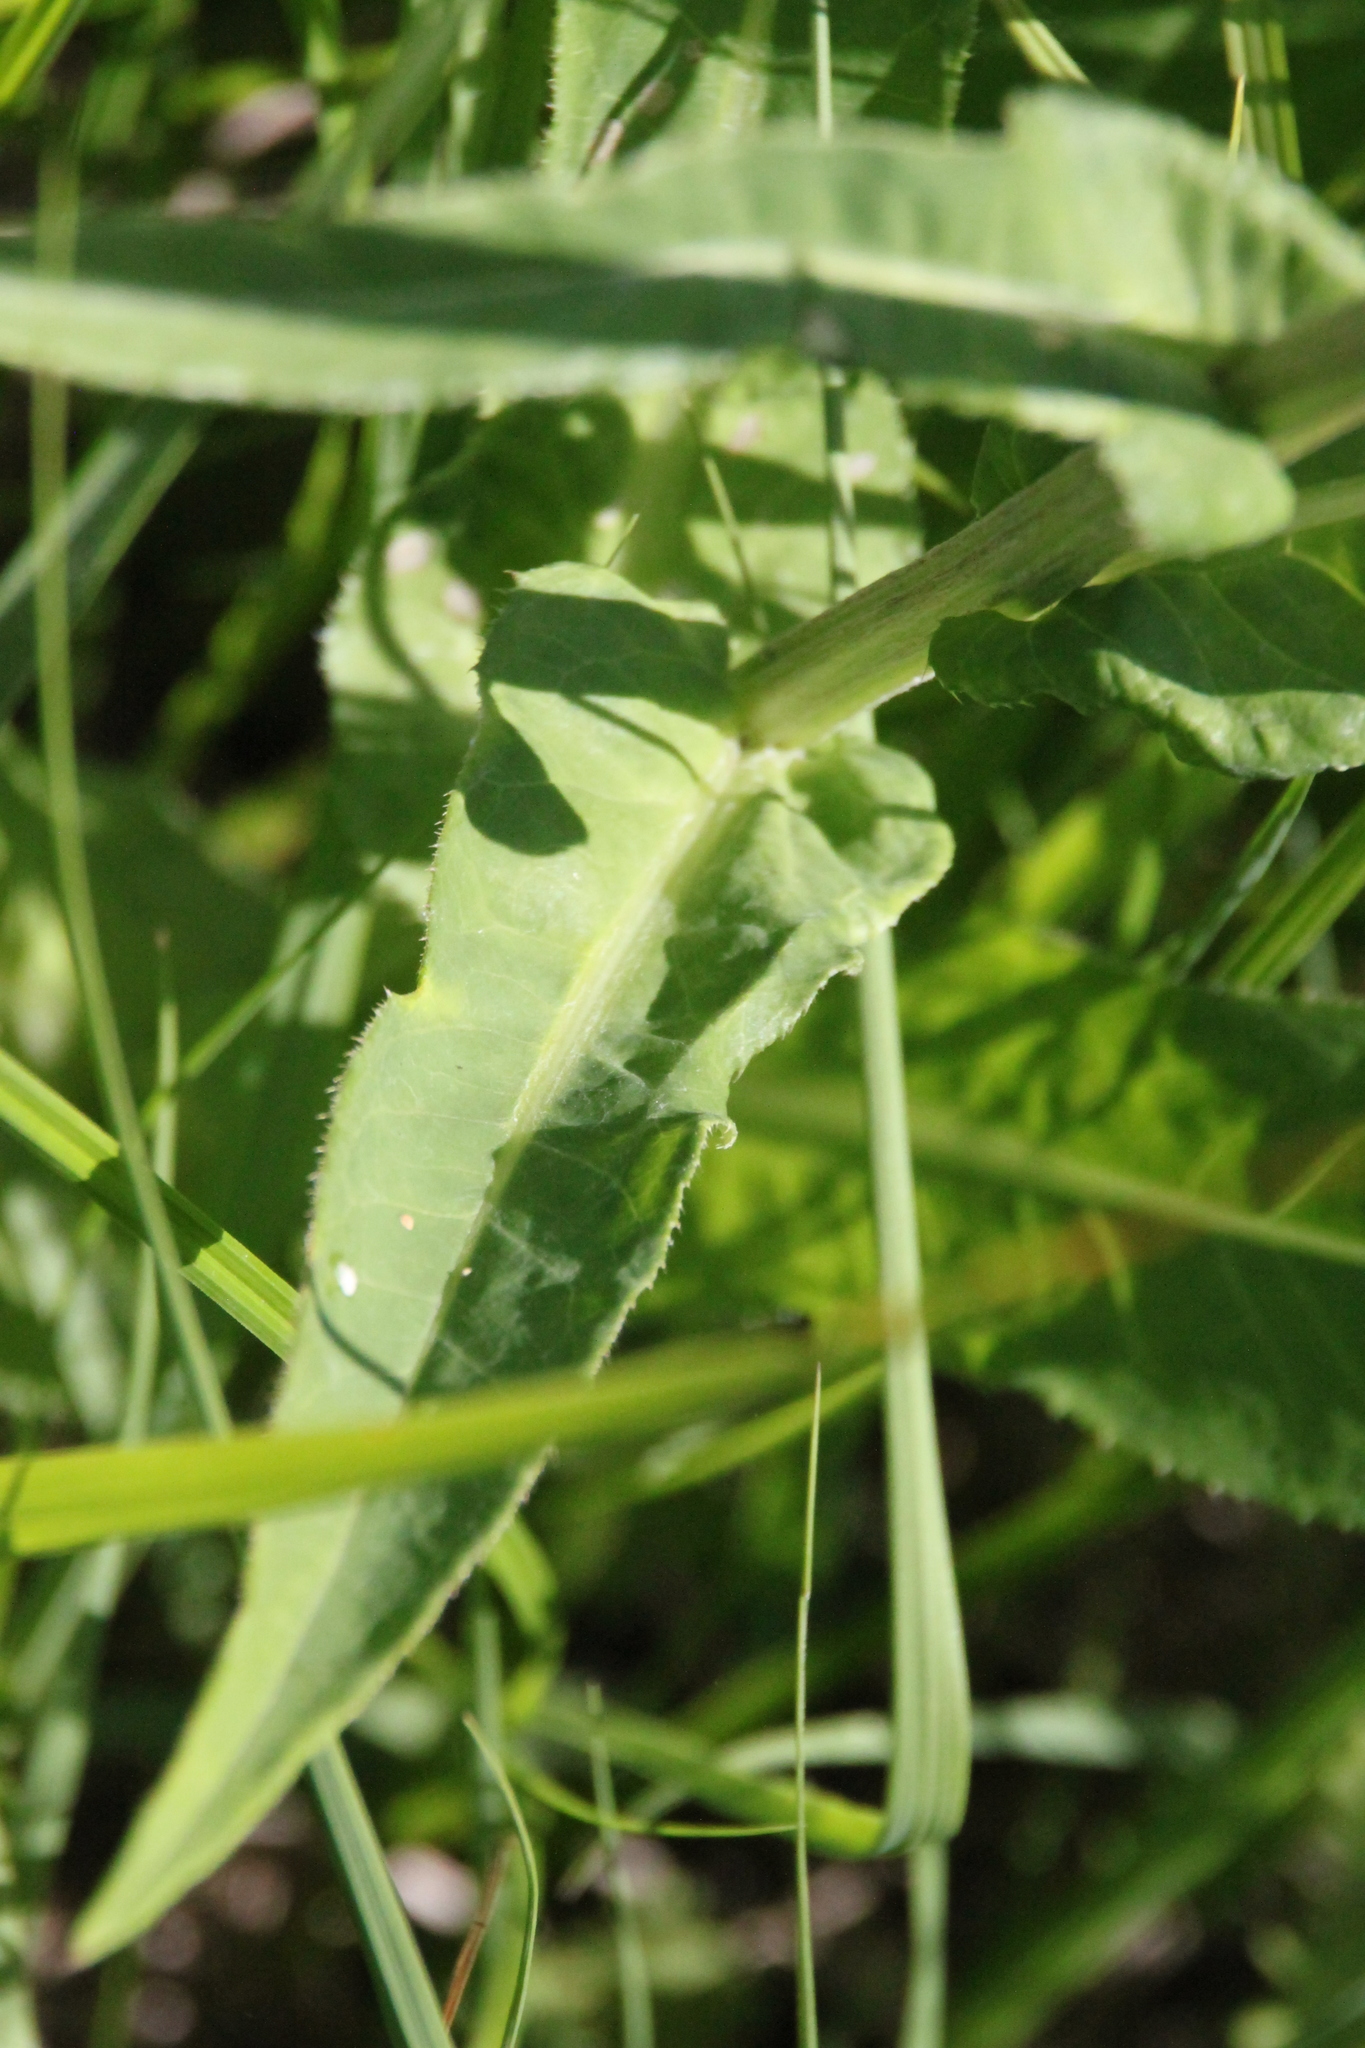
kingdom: Plantae
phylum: Tracheophyta
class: Magnoliopsida
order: Asterales
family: Asteraceae
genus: Cirsium
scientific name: Cirsium heterophyllum
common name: Melancholy thistle
